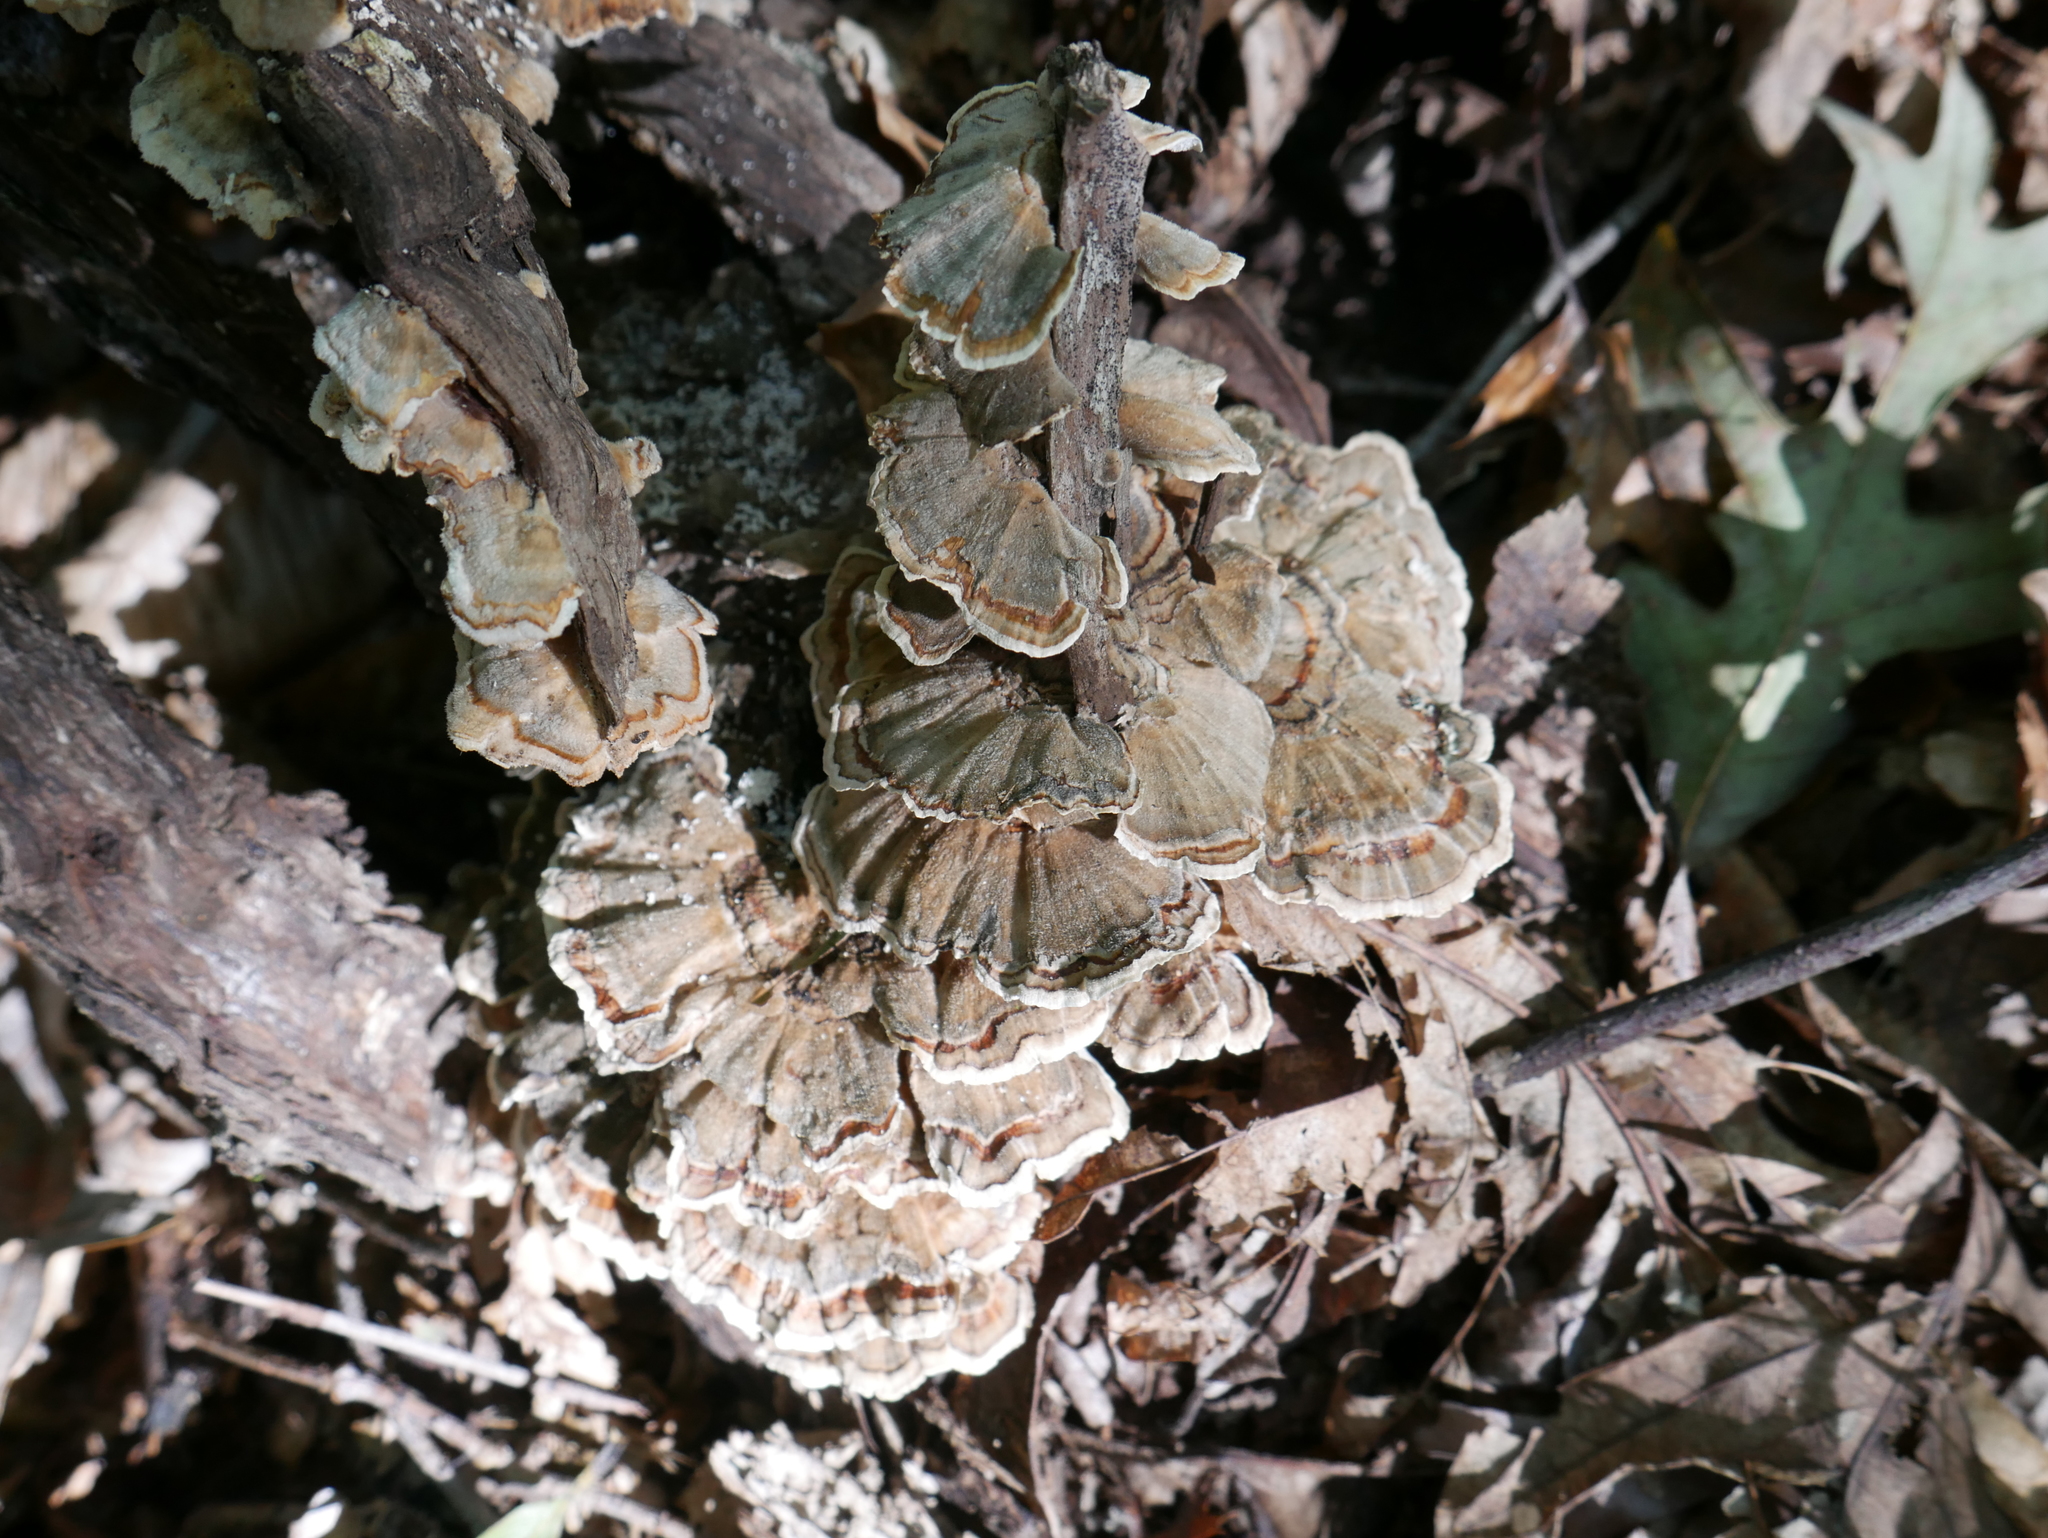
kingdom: Fungi
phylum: Basidiomycota
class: Agaricomycetes
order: Polyporales
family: Polyporaceae
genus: Trametes
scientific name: Trametes versicolor
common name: Turkeytail
